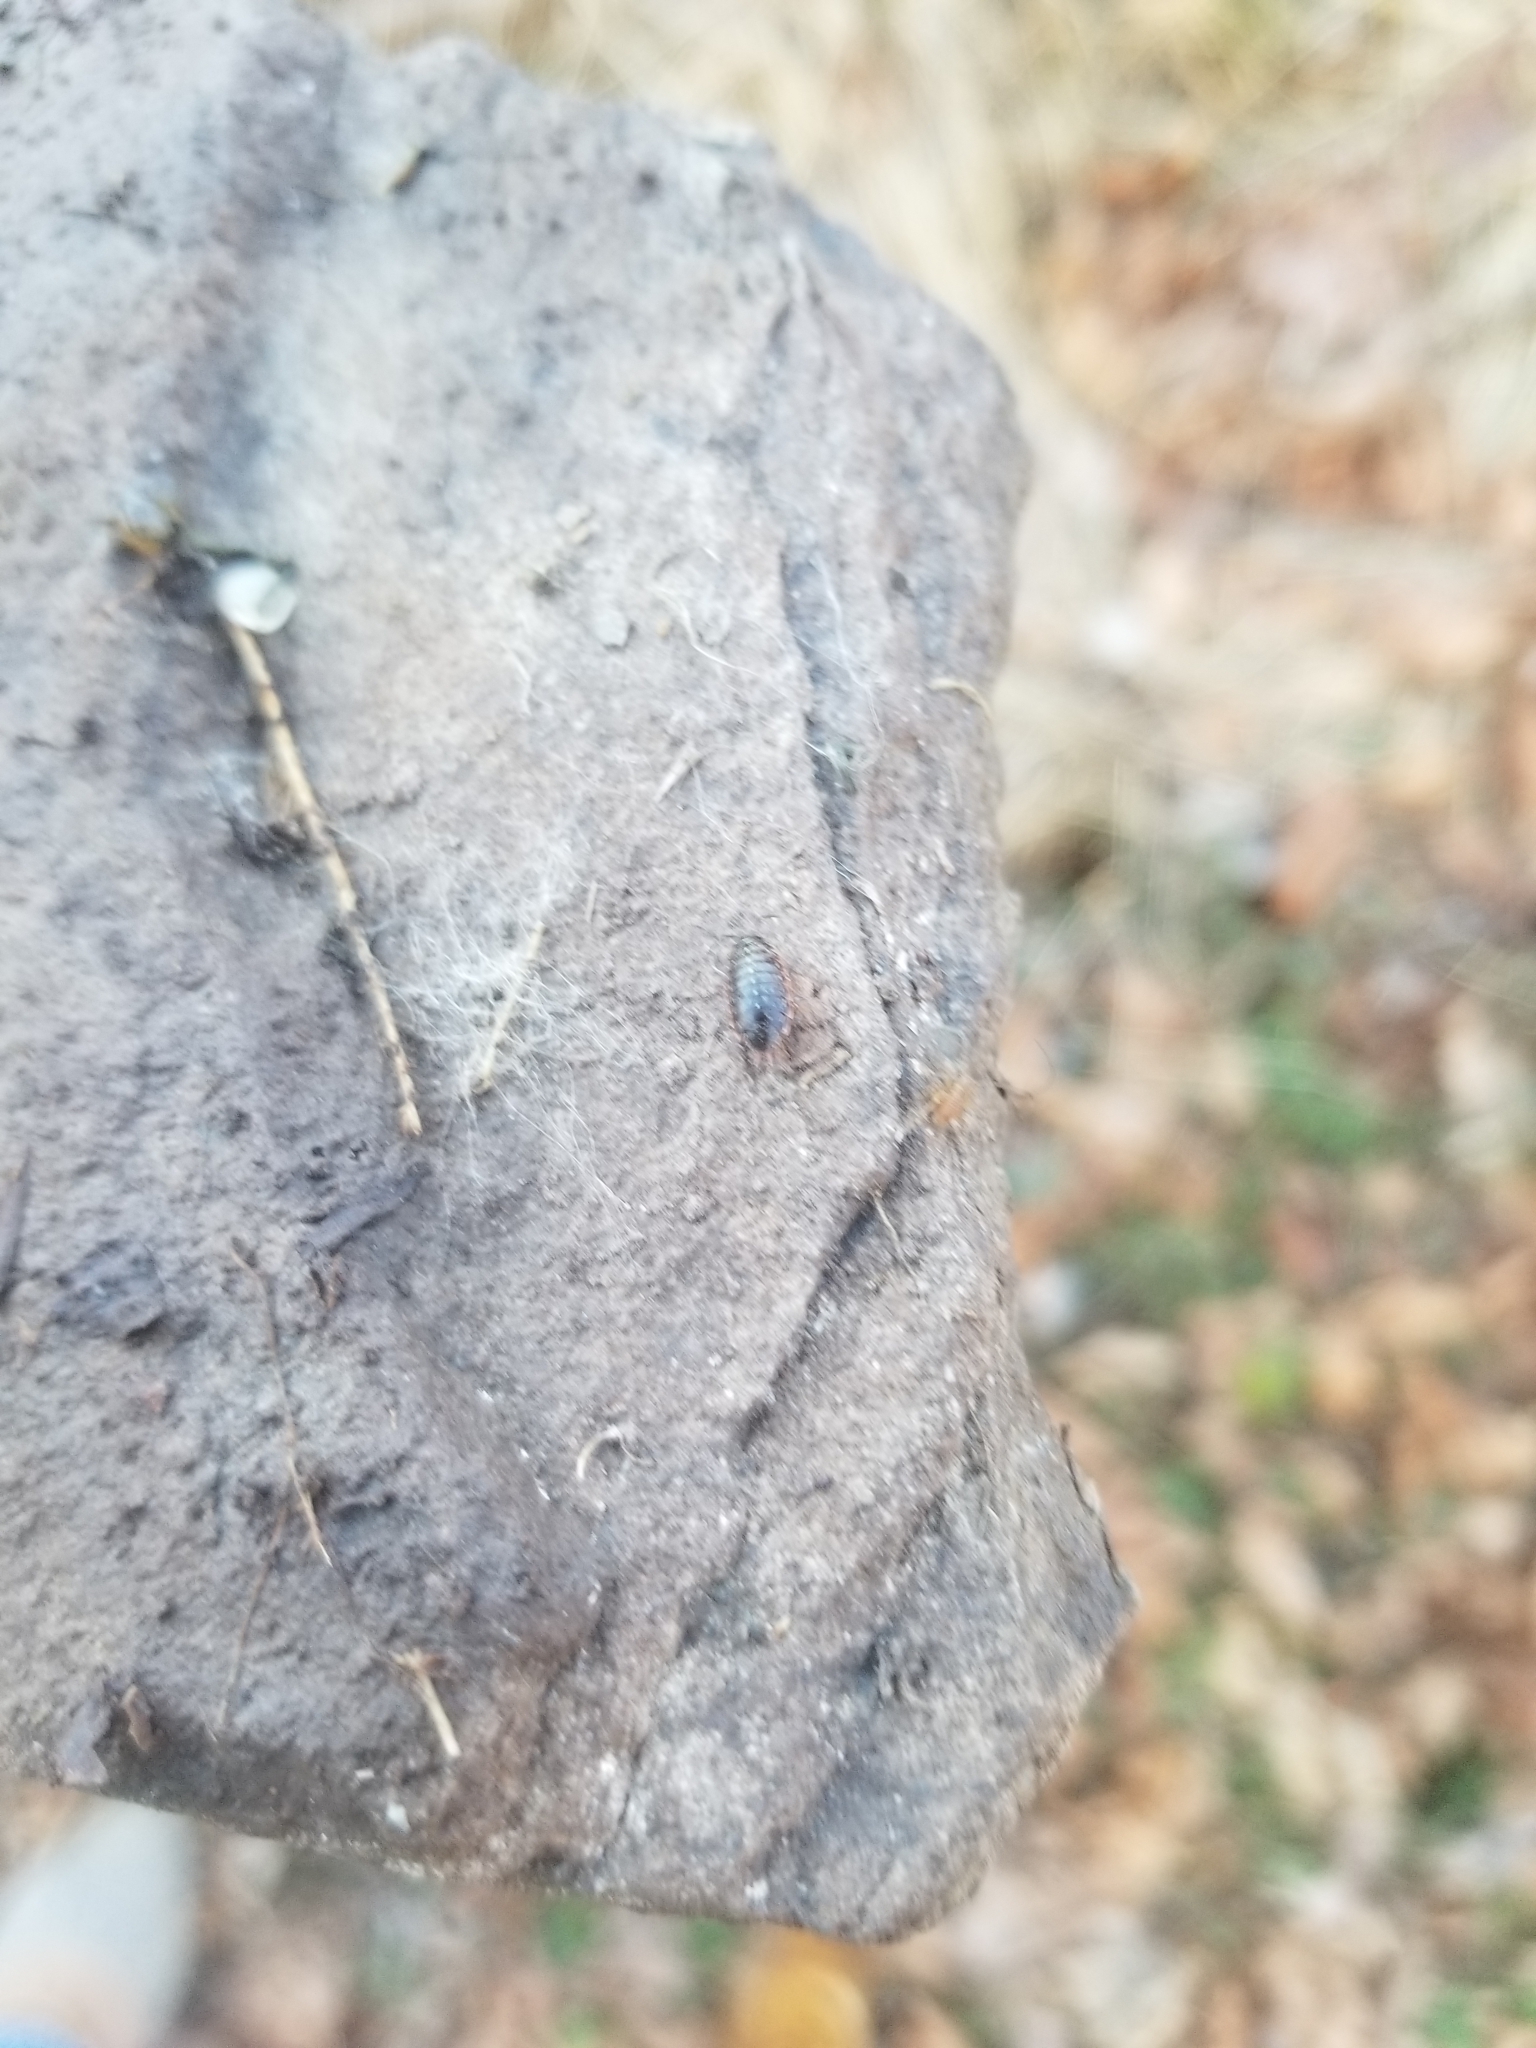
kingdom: Animalia
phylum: Arthropoda
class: Malacostraca
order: Isopoda
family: Philosciidae
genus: Philoscia
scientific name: Philoscia muscorum
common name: Common striped woodlouse
